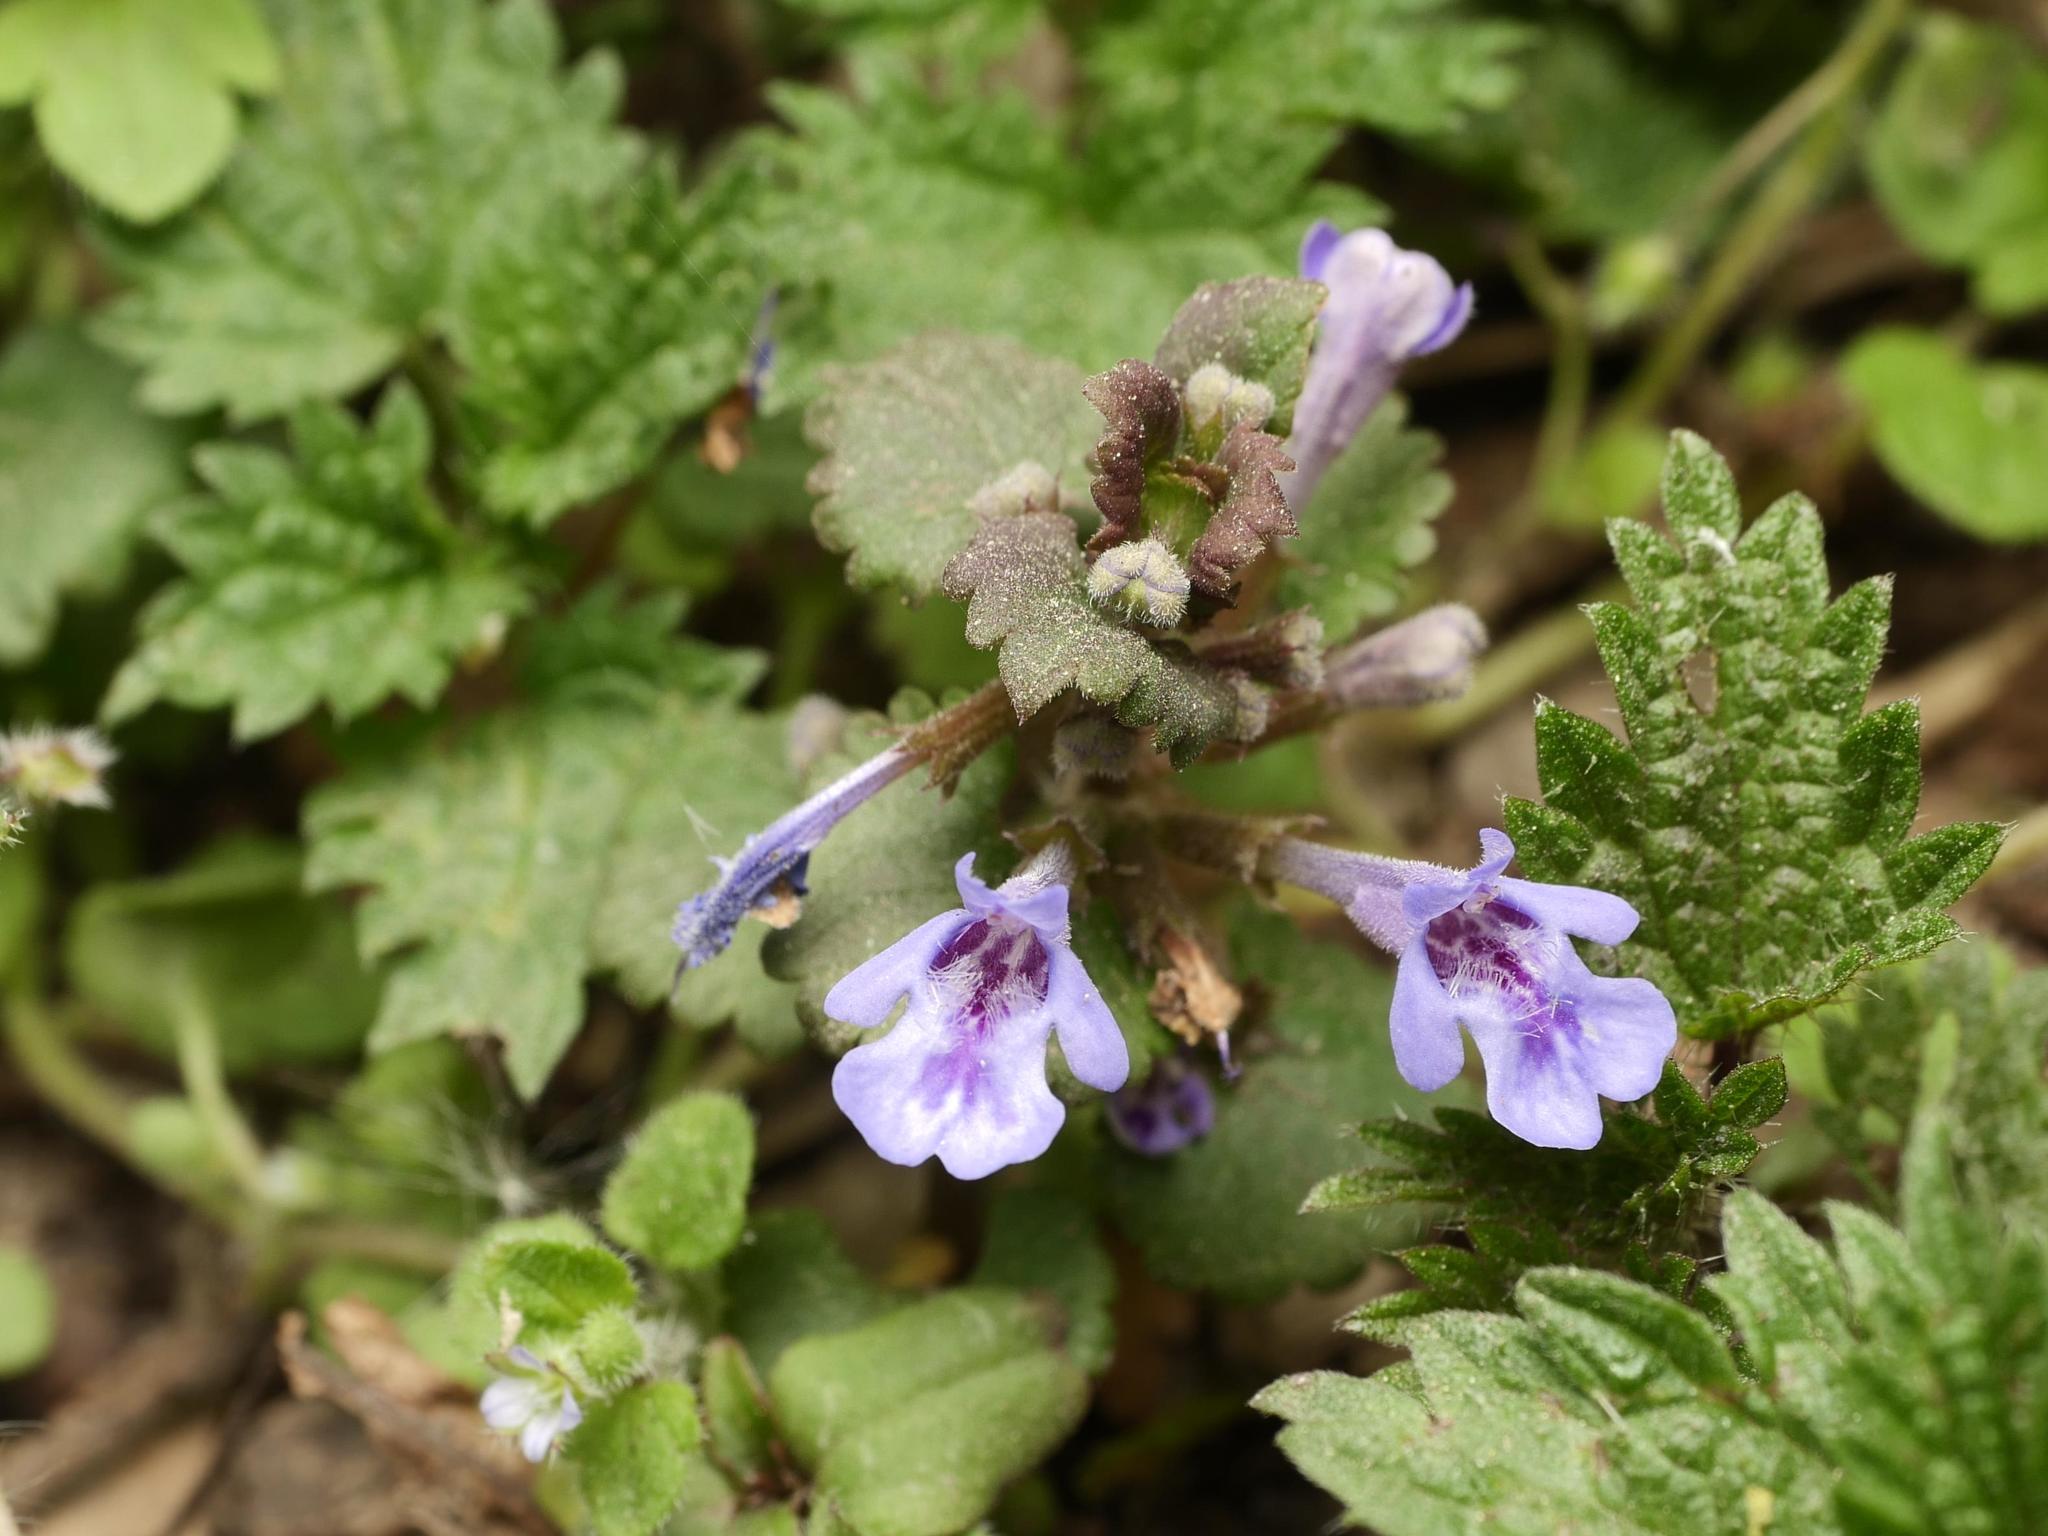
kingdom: Plantae
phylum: Tracheophyta
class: Magnoliopsida
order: Lamiales
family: Lamiaceae
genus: Glechoma
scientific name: Glechoma hederacea
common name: Ground ivy
